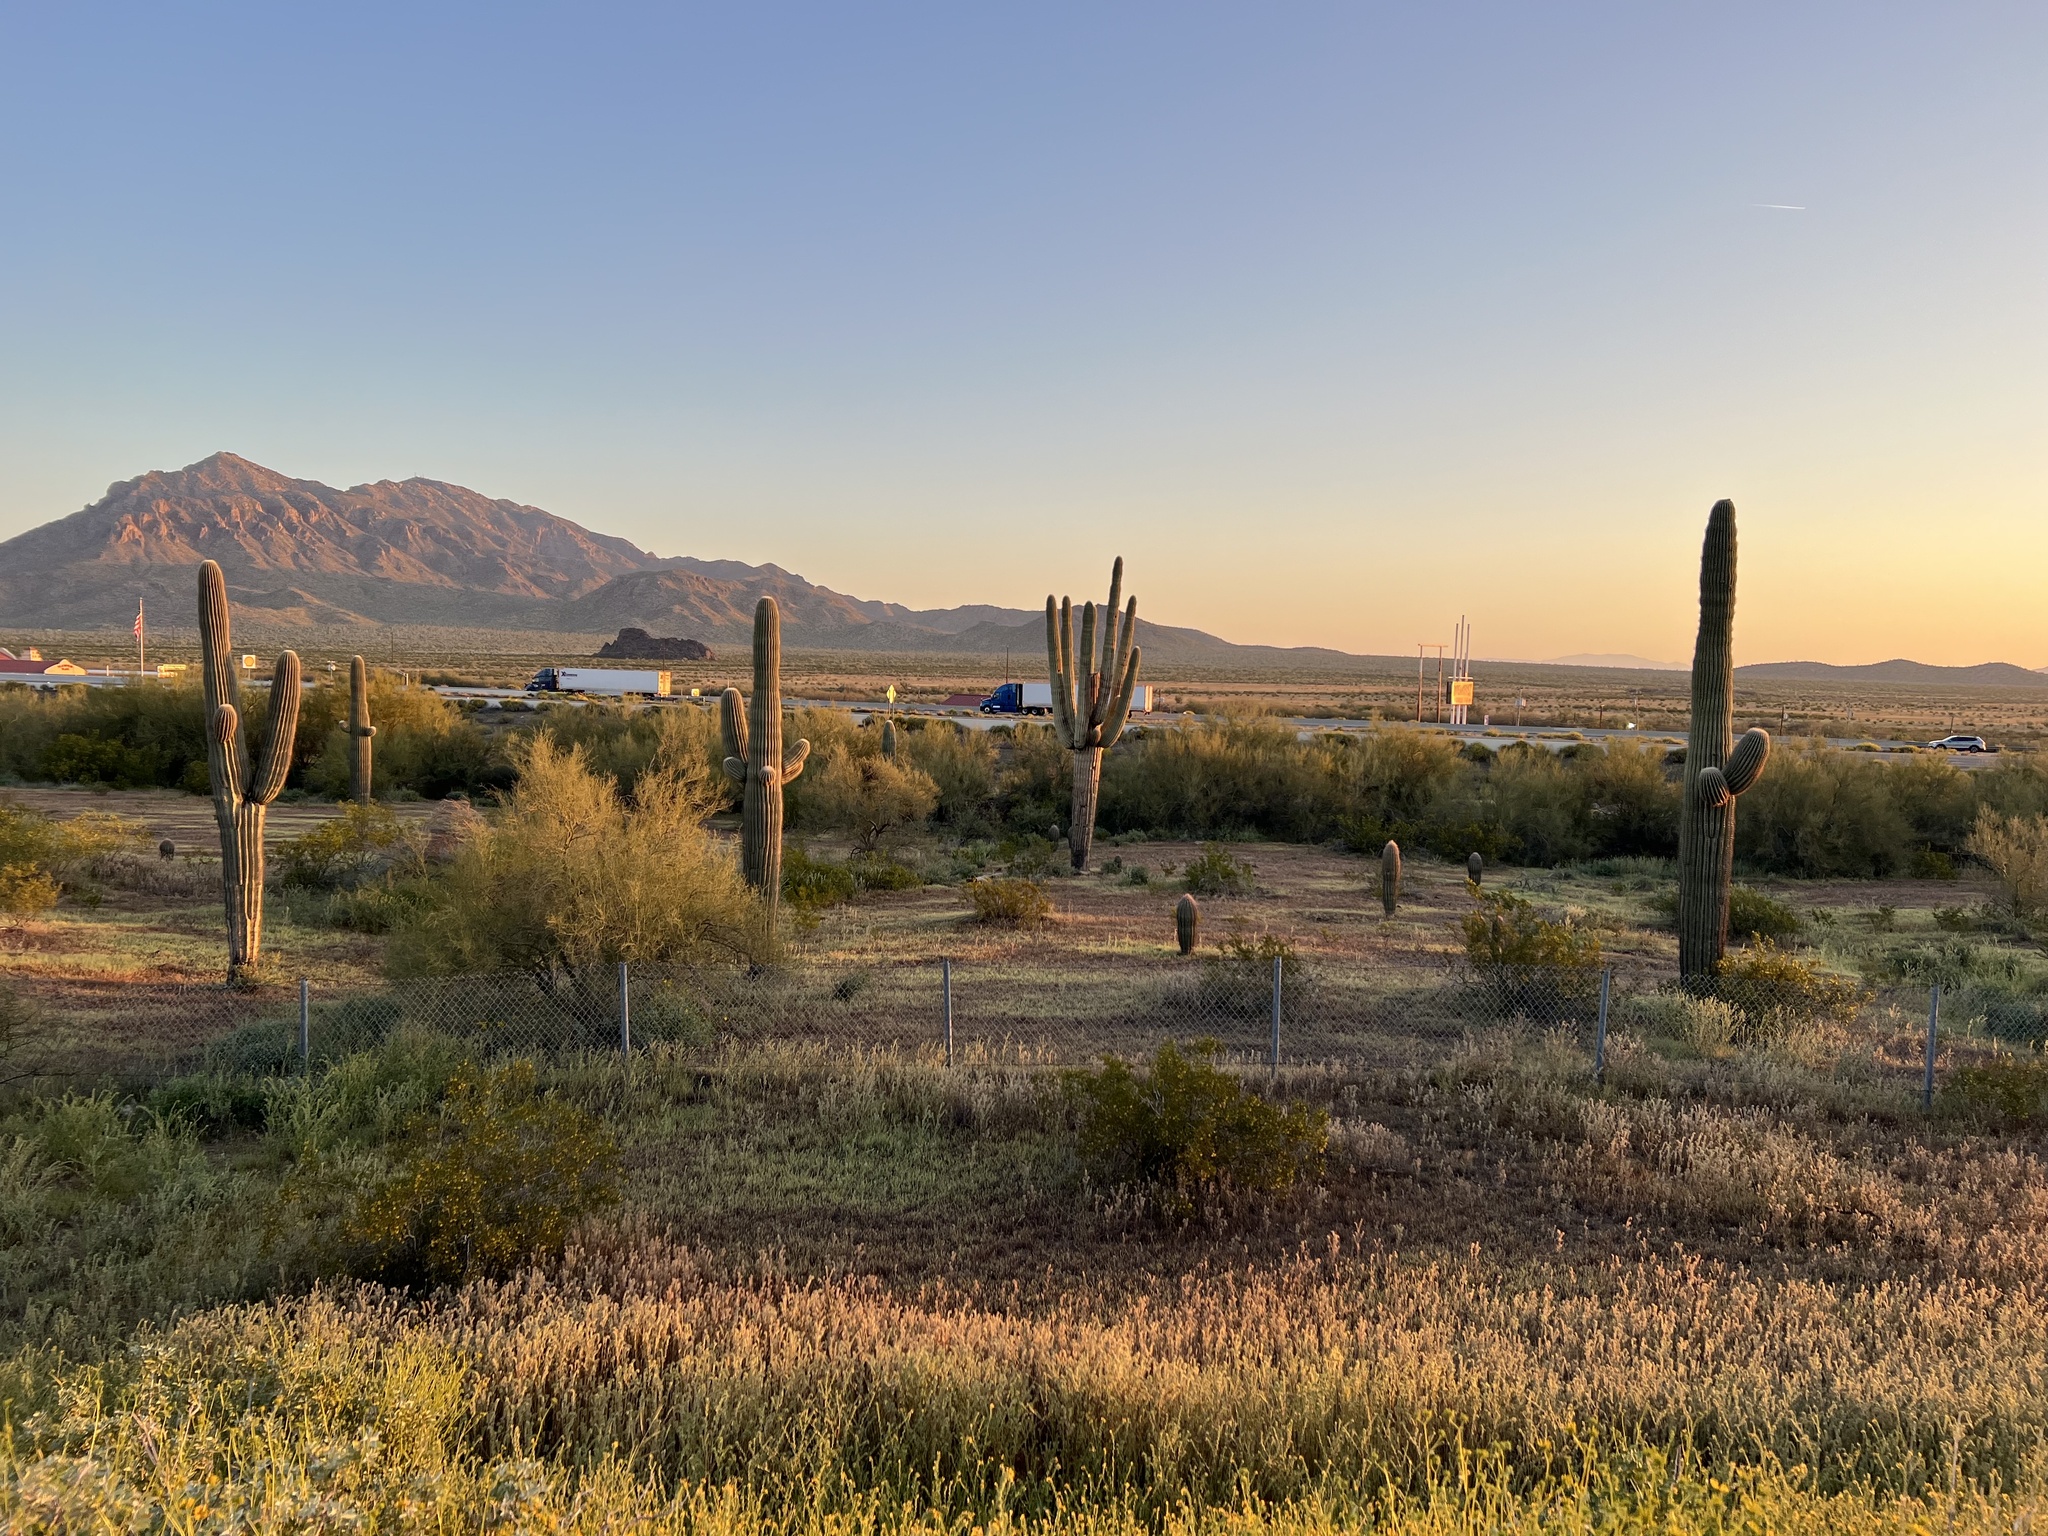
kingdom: Plantae
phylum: Tracheophyta
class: Magnoliopsida
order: Caryophyllales
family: Cactaceae
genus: Carnegiea
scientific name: Carnegiea gigantea
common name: Saguaro
